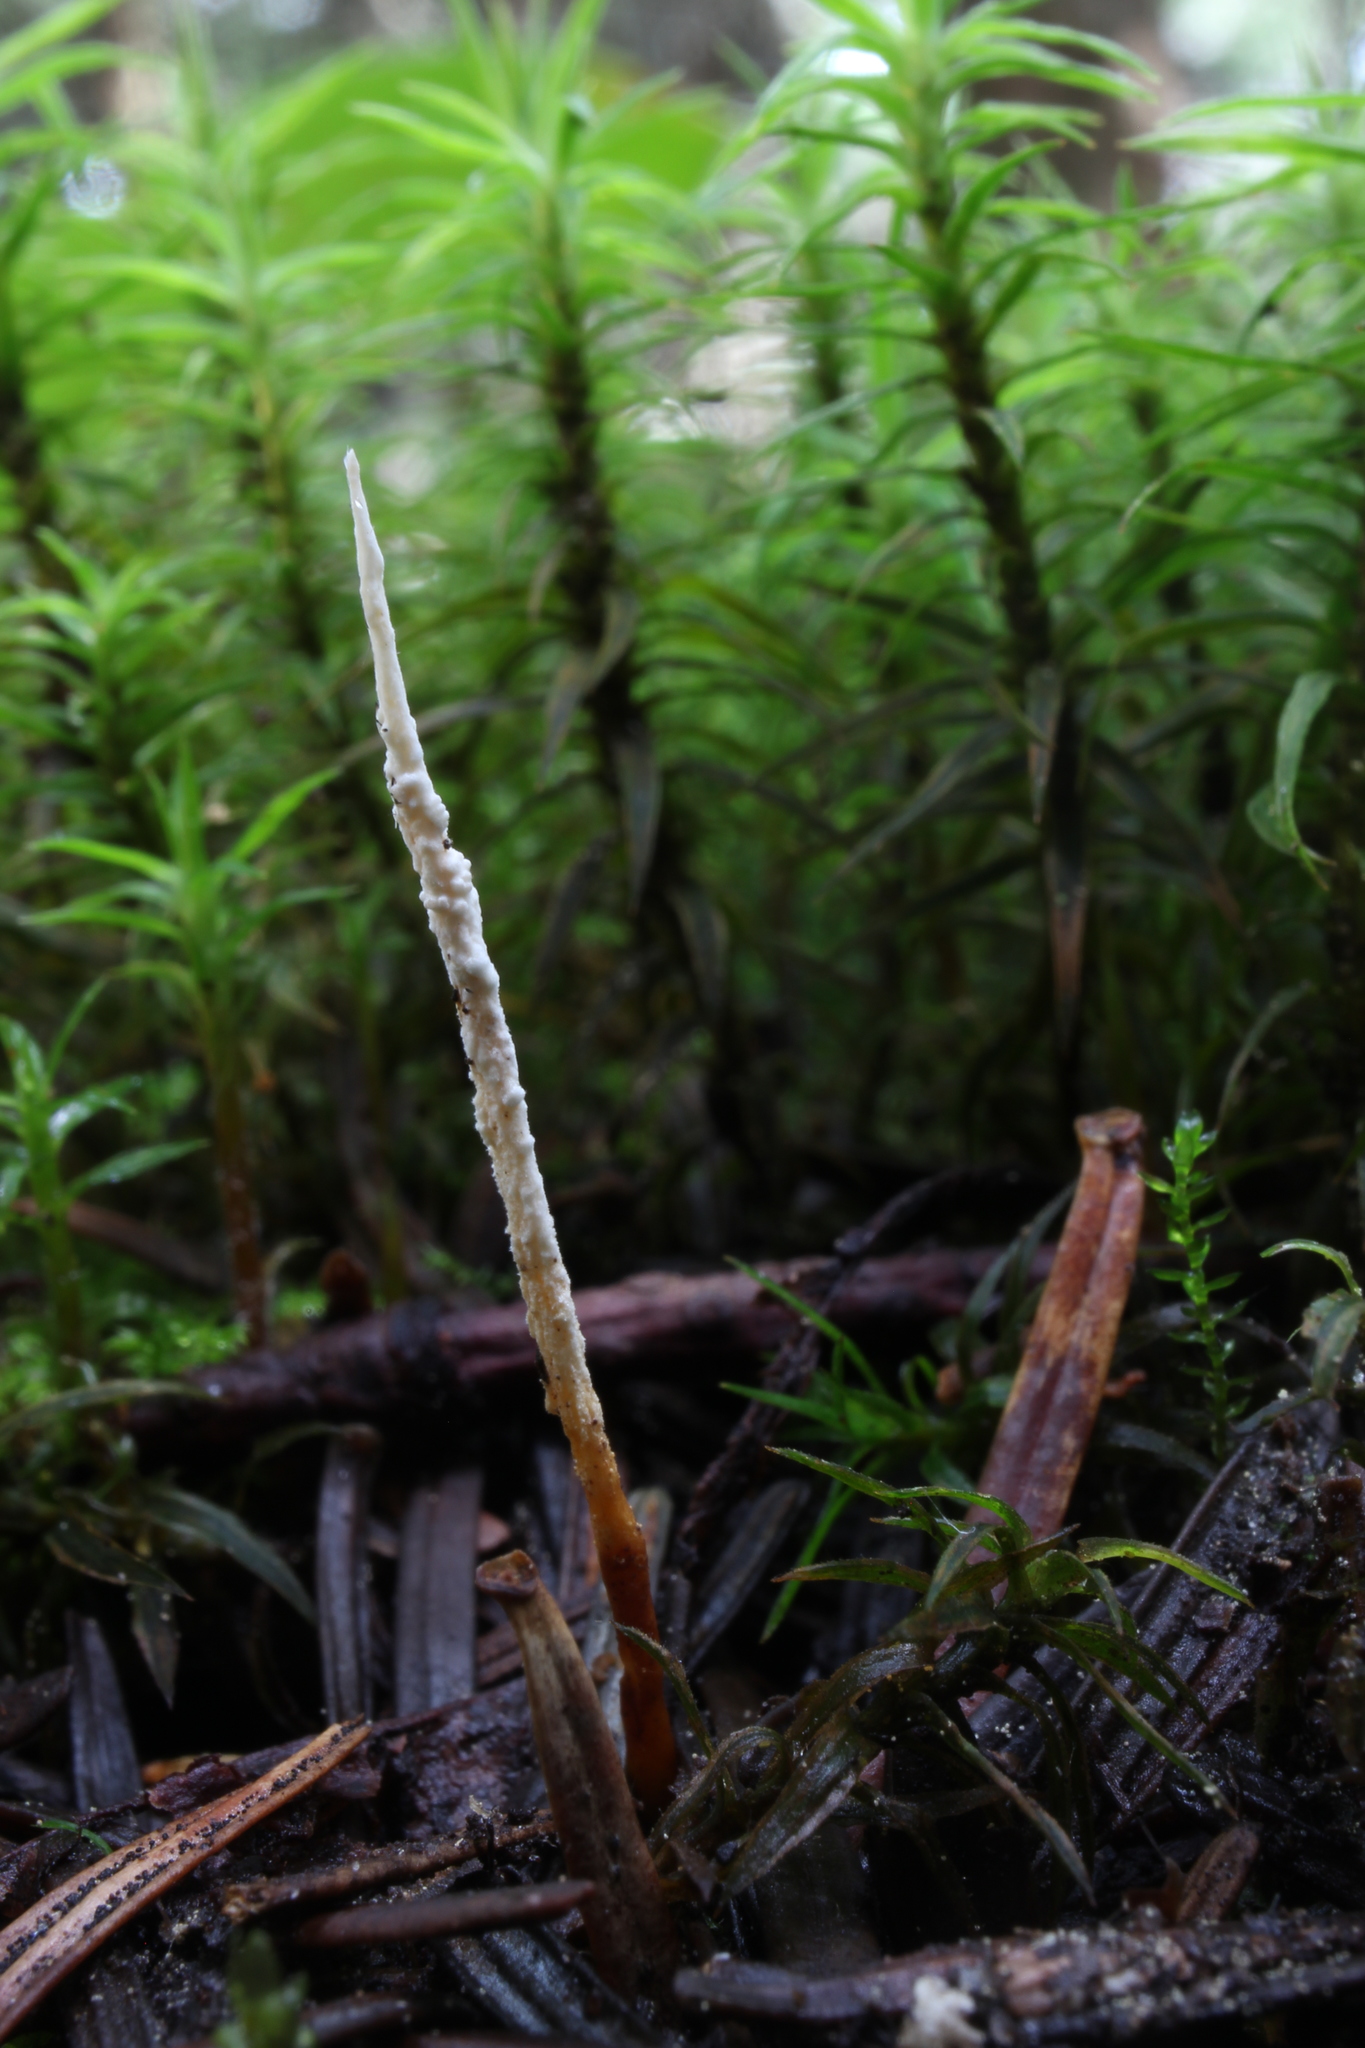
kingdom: Fungi
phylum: Ascomycota
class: Sordariomycetes
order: Hypocreales
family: Ophiocordycipitaceae
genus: Ophiocordyceps
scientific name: Ophiocordyceps stylophora
